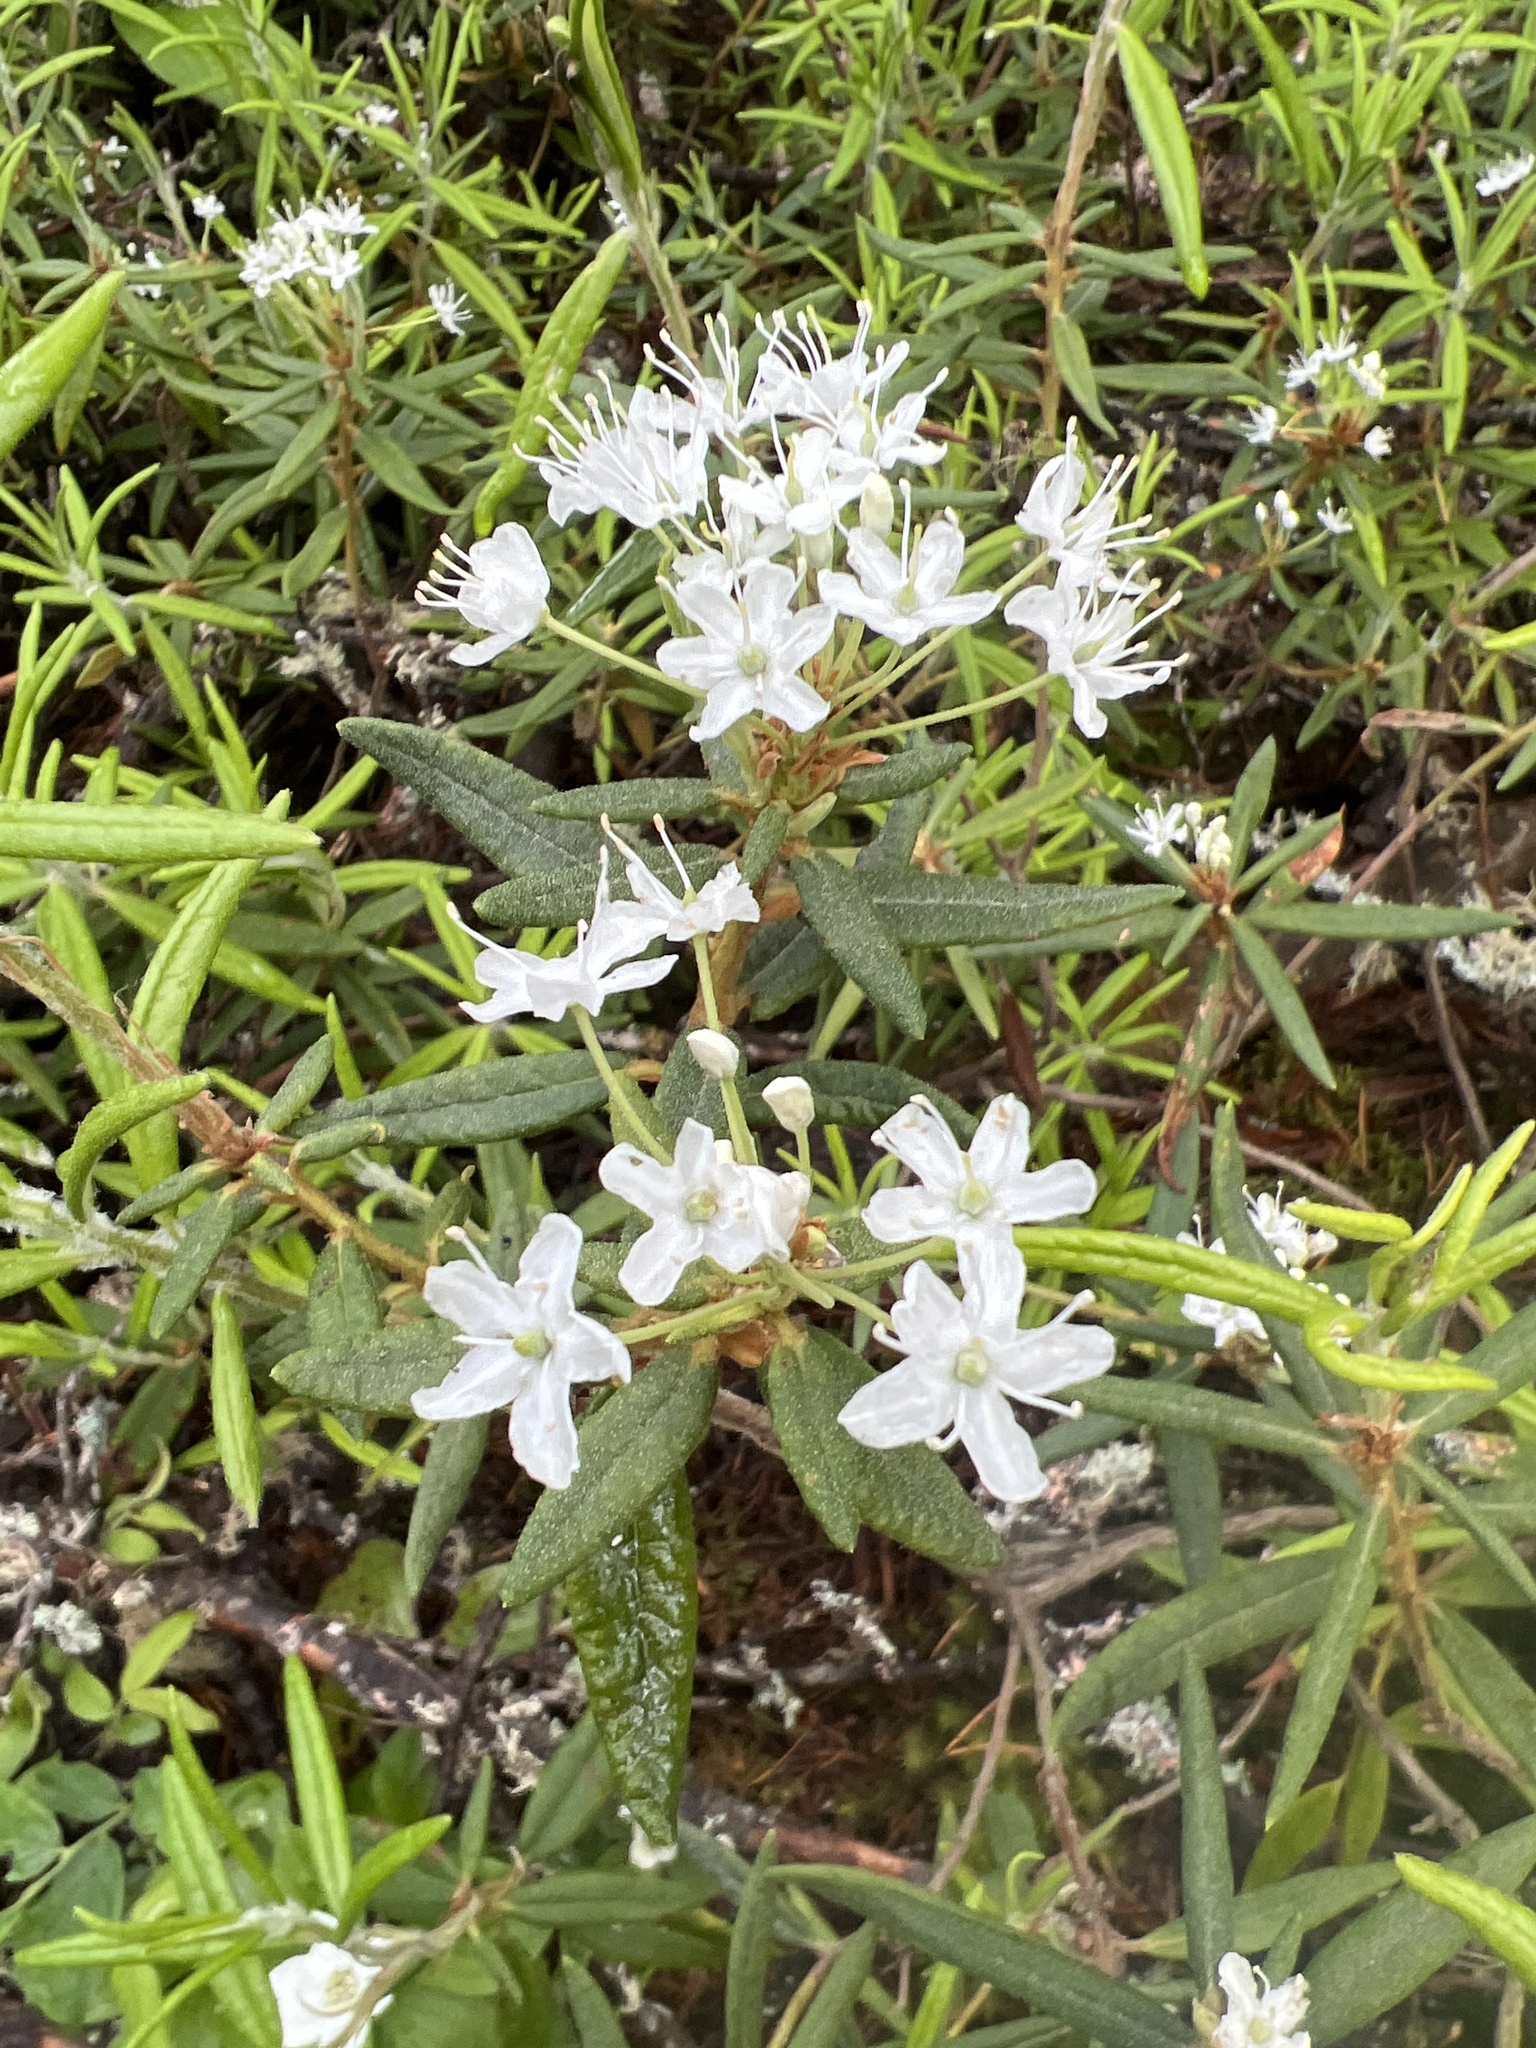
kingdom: Plantae
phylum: Tracheophyta
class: Magnoliopsida
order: Ericales
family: Ericaceae
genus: Rhododendron
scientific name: Rhododendron groenlandicum
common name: Bog labrador tea
